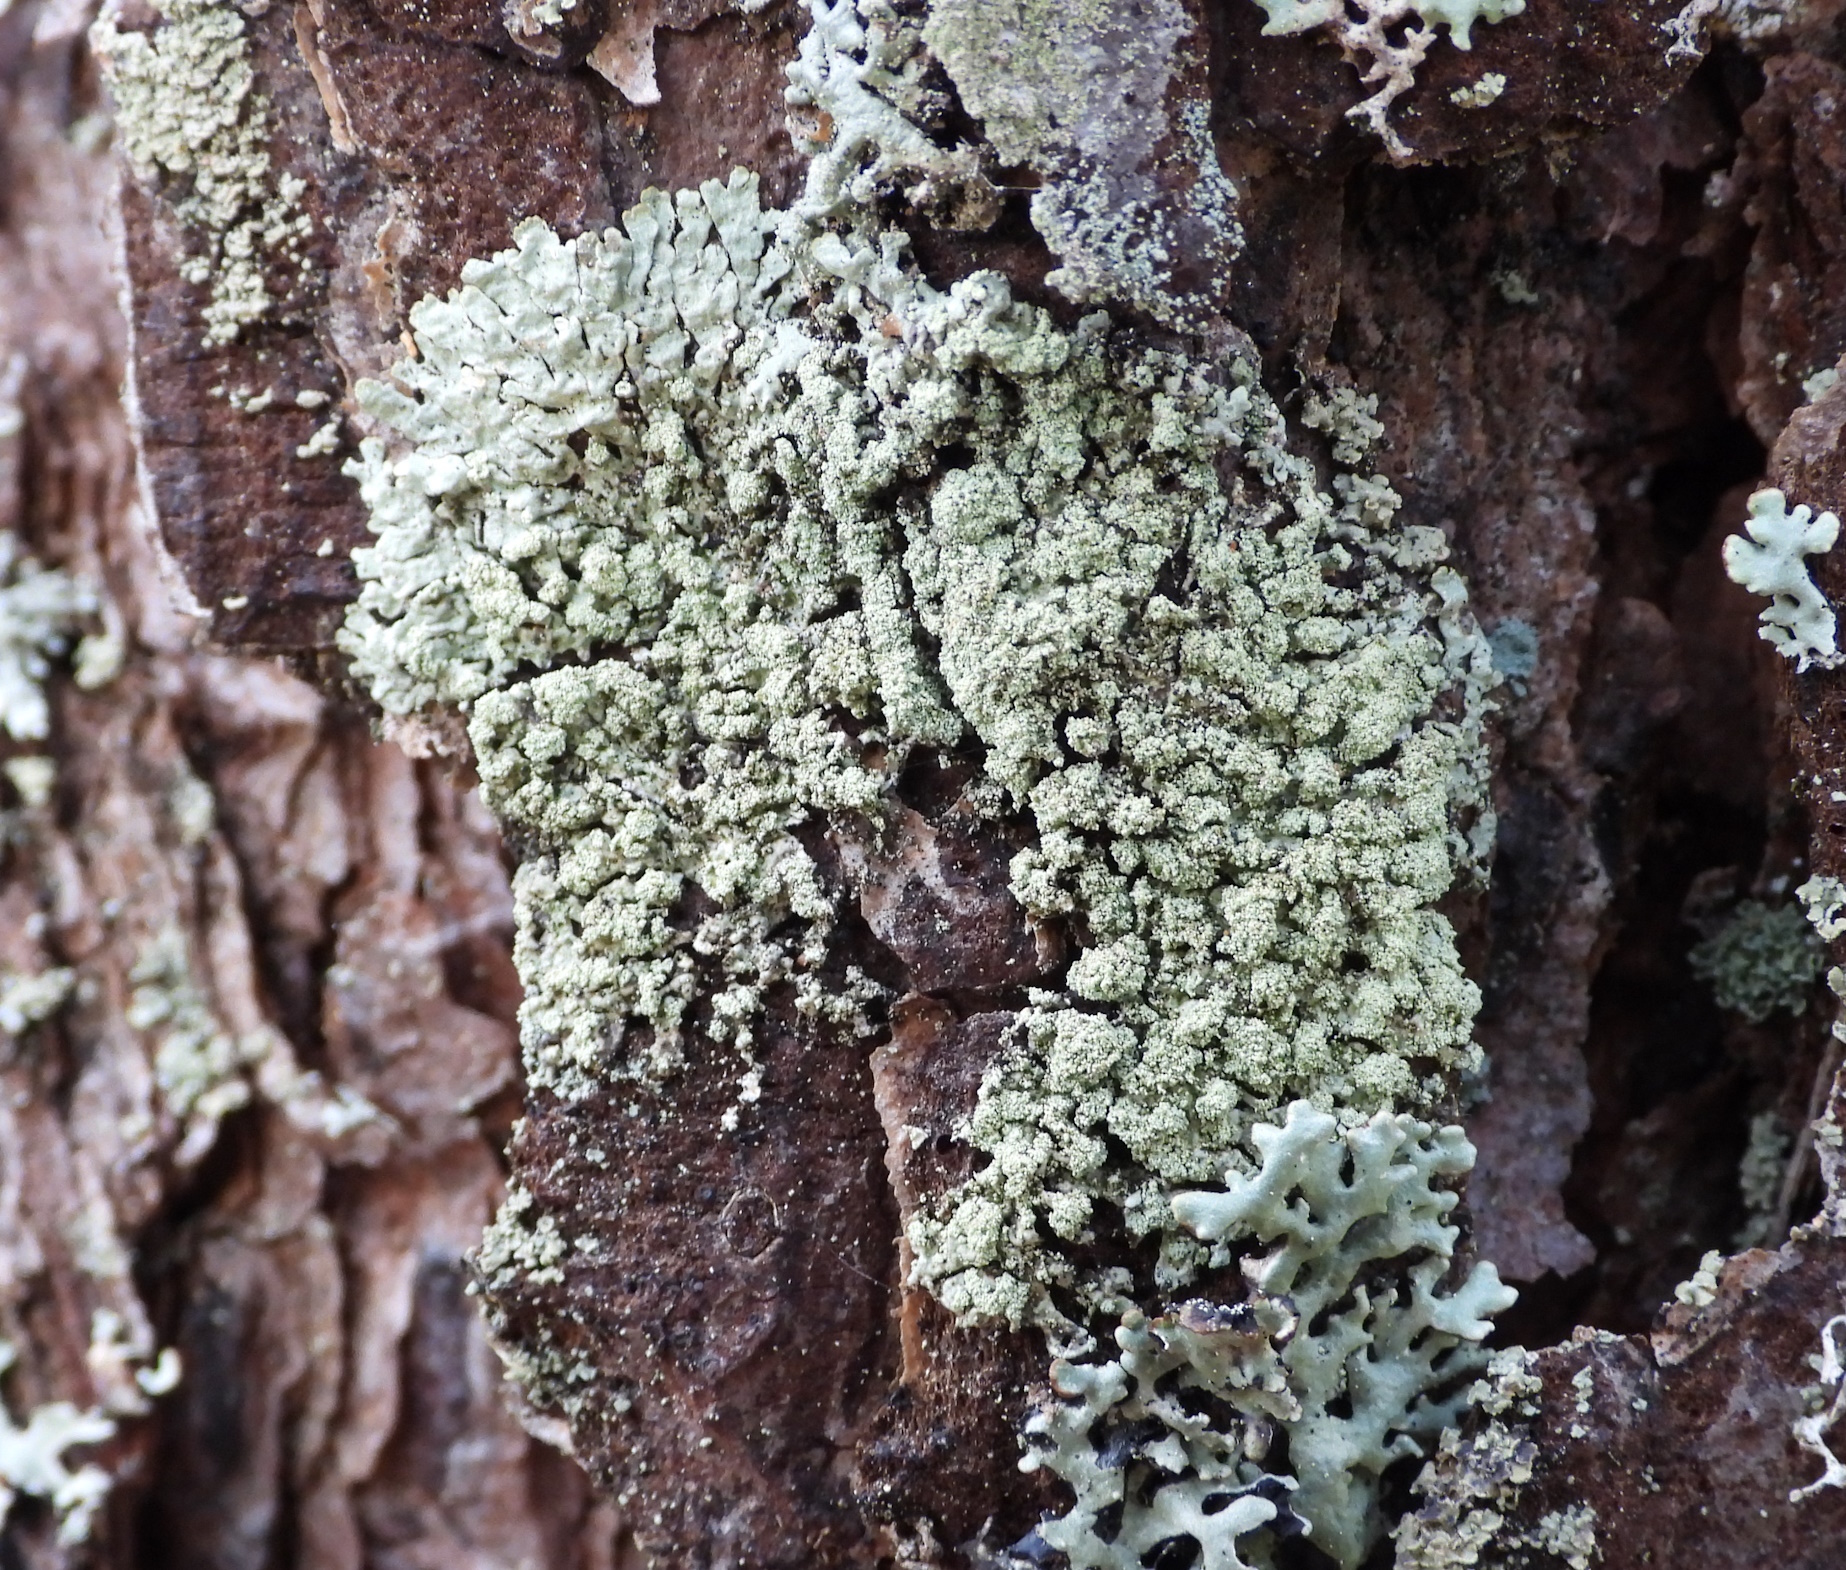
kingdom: Fungi
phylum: Ascomycota
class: Lecanoromycetes
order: Lecanorales
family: Parmeliaceae
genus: Parmeliopsis
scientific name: Parmeliopsis ambigua
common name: Green starburst lichen
